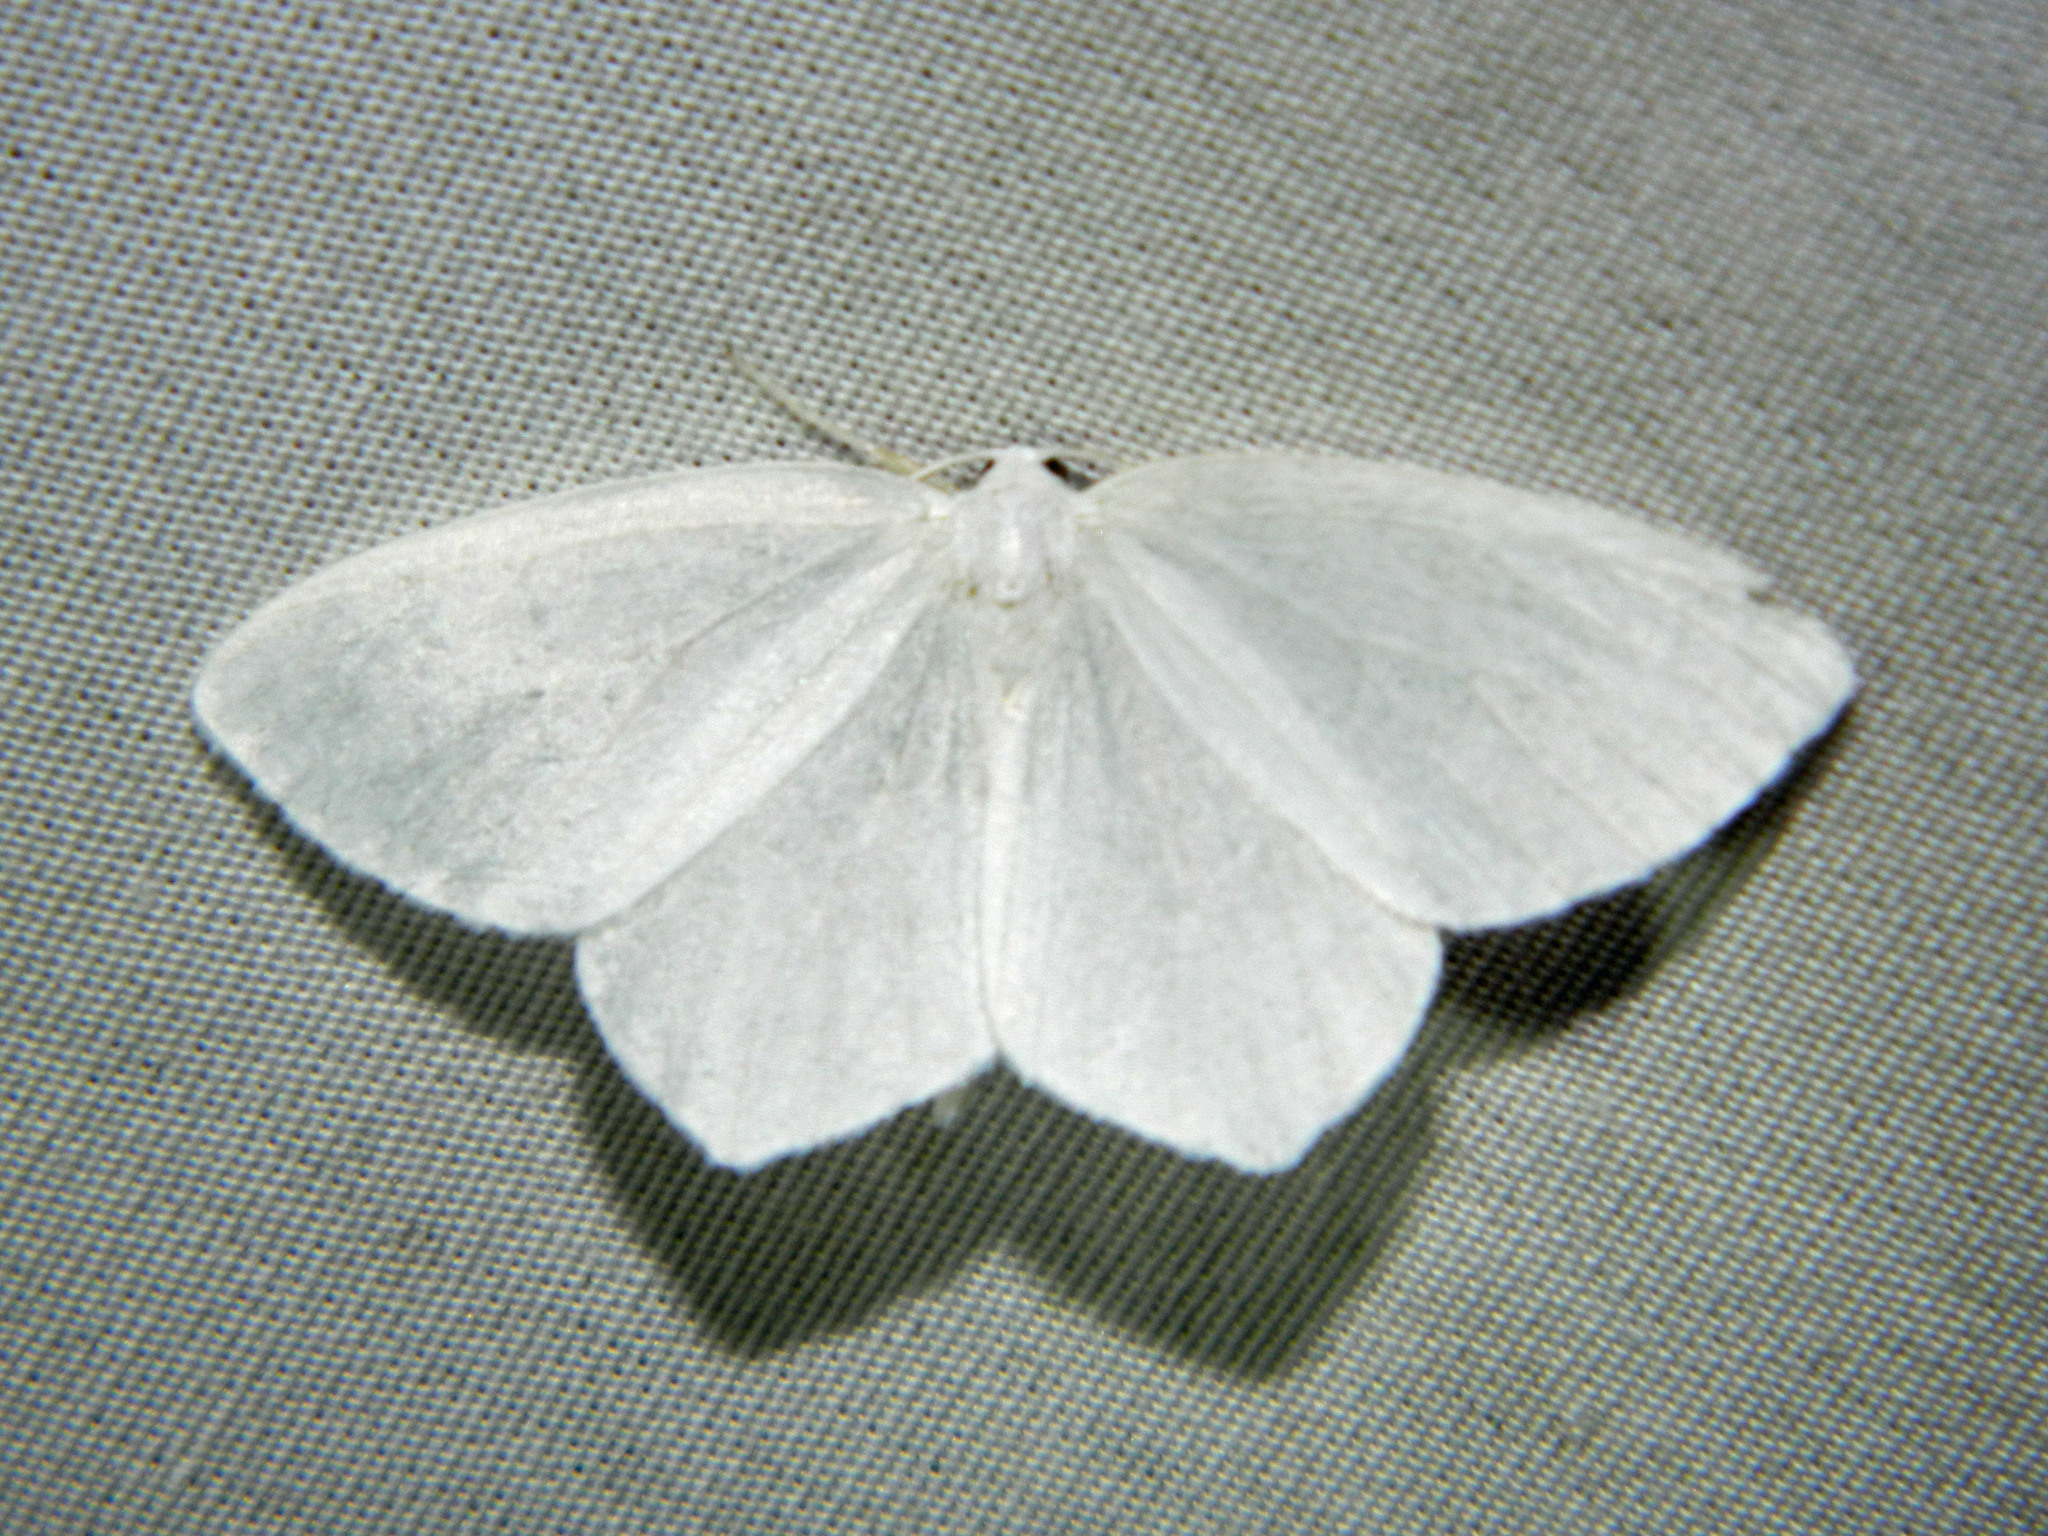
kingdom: Animalia
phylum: Arthropoda
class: Insecta
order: Lepidoptera
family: Geometridae
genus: Eugonobapta
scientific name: Eugonobapta nivosaria
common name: Snowy geometer
